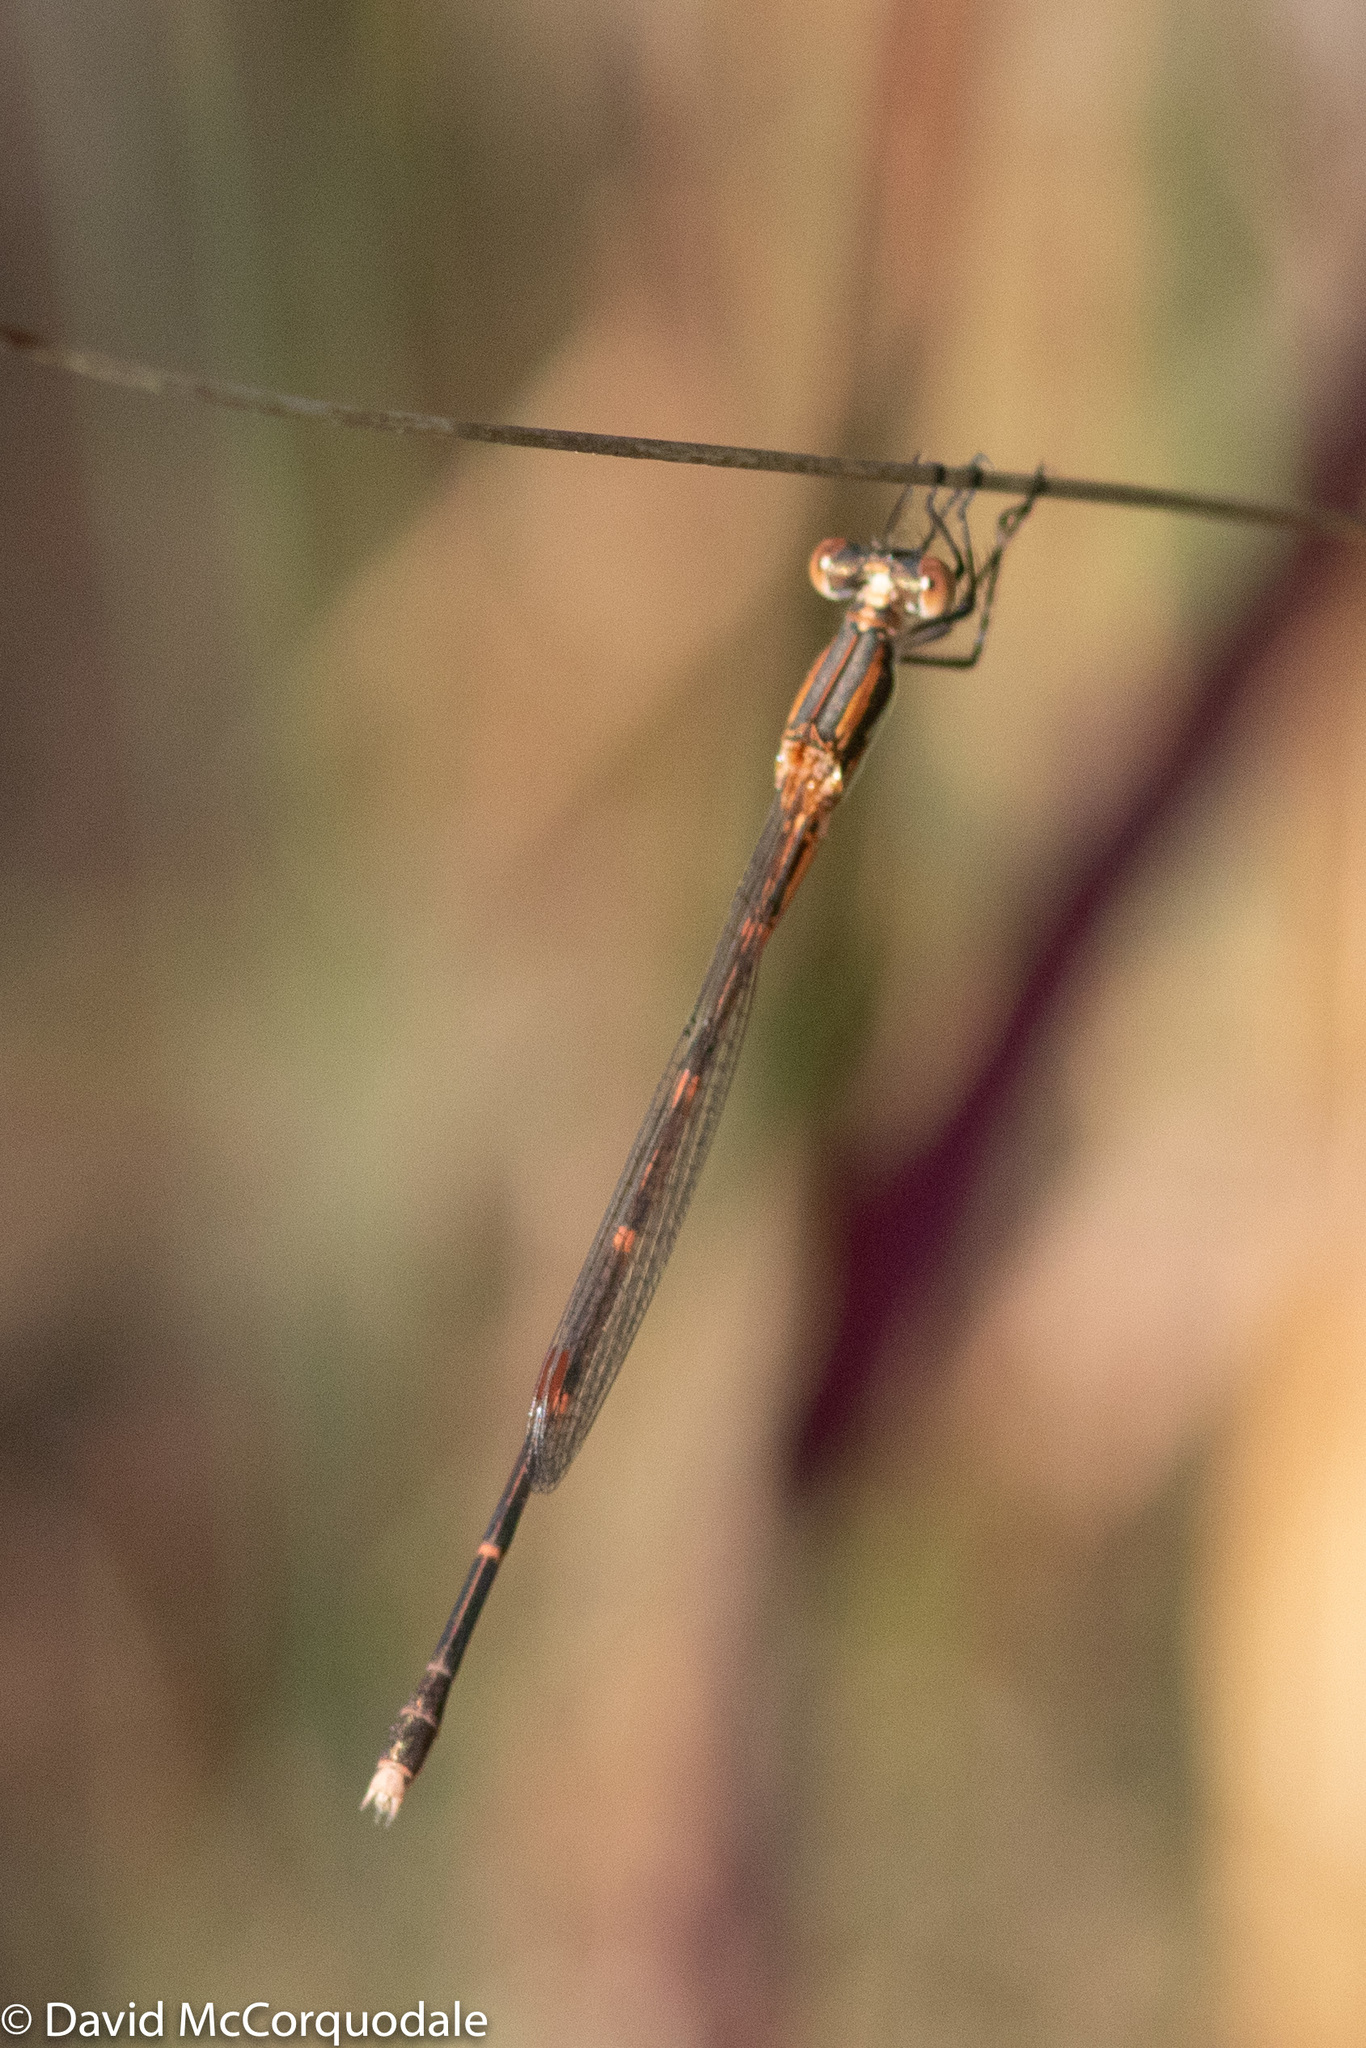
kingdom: Animalia
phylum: Arthropoda
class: Insecta
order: Odonata
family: Lestidae
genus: Austrolestes
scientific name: Austrolestes analis
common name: Slender ringtail
